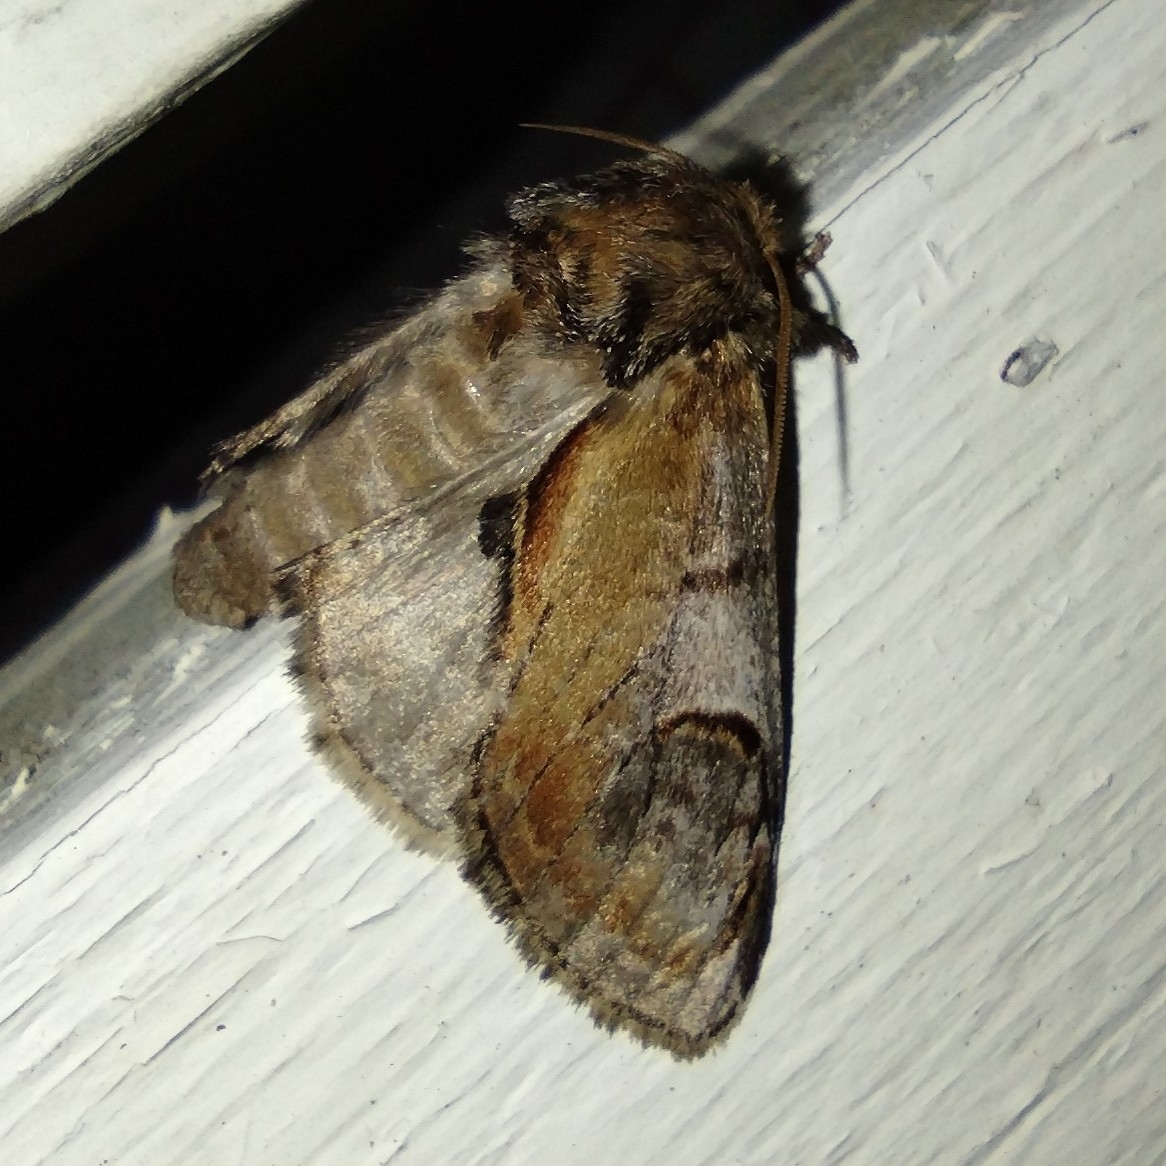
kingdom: Animalia
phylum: Arthropoda
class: Insecta
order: Lepidoptera
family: Notodontidae
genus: Notodonta
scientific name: Notodonta ziczac
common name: Pebble prominent
